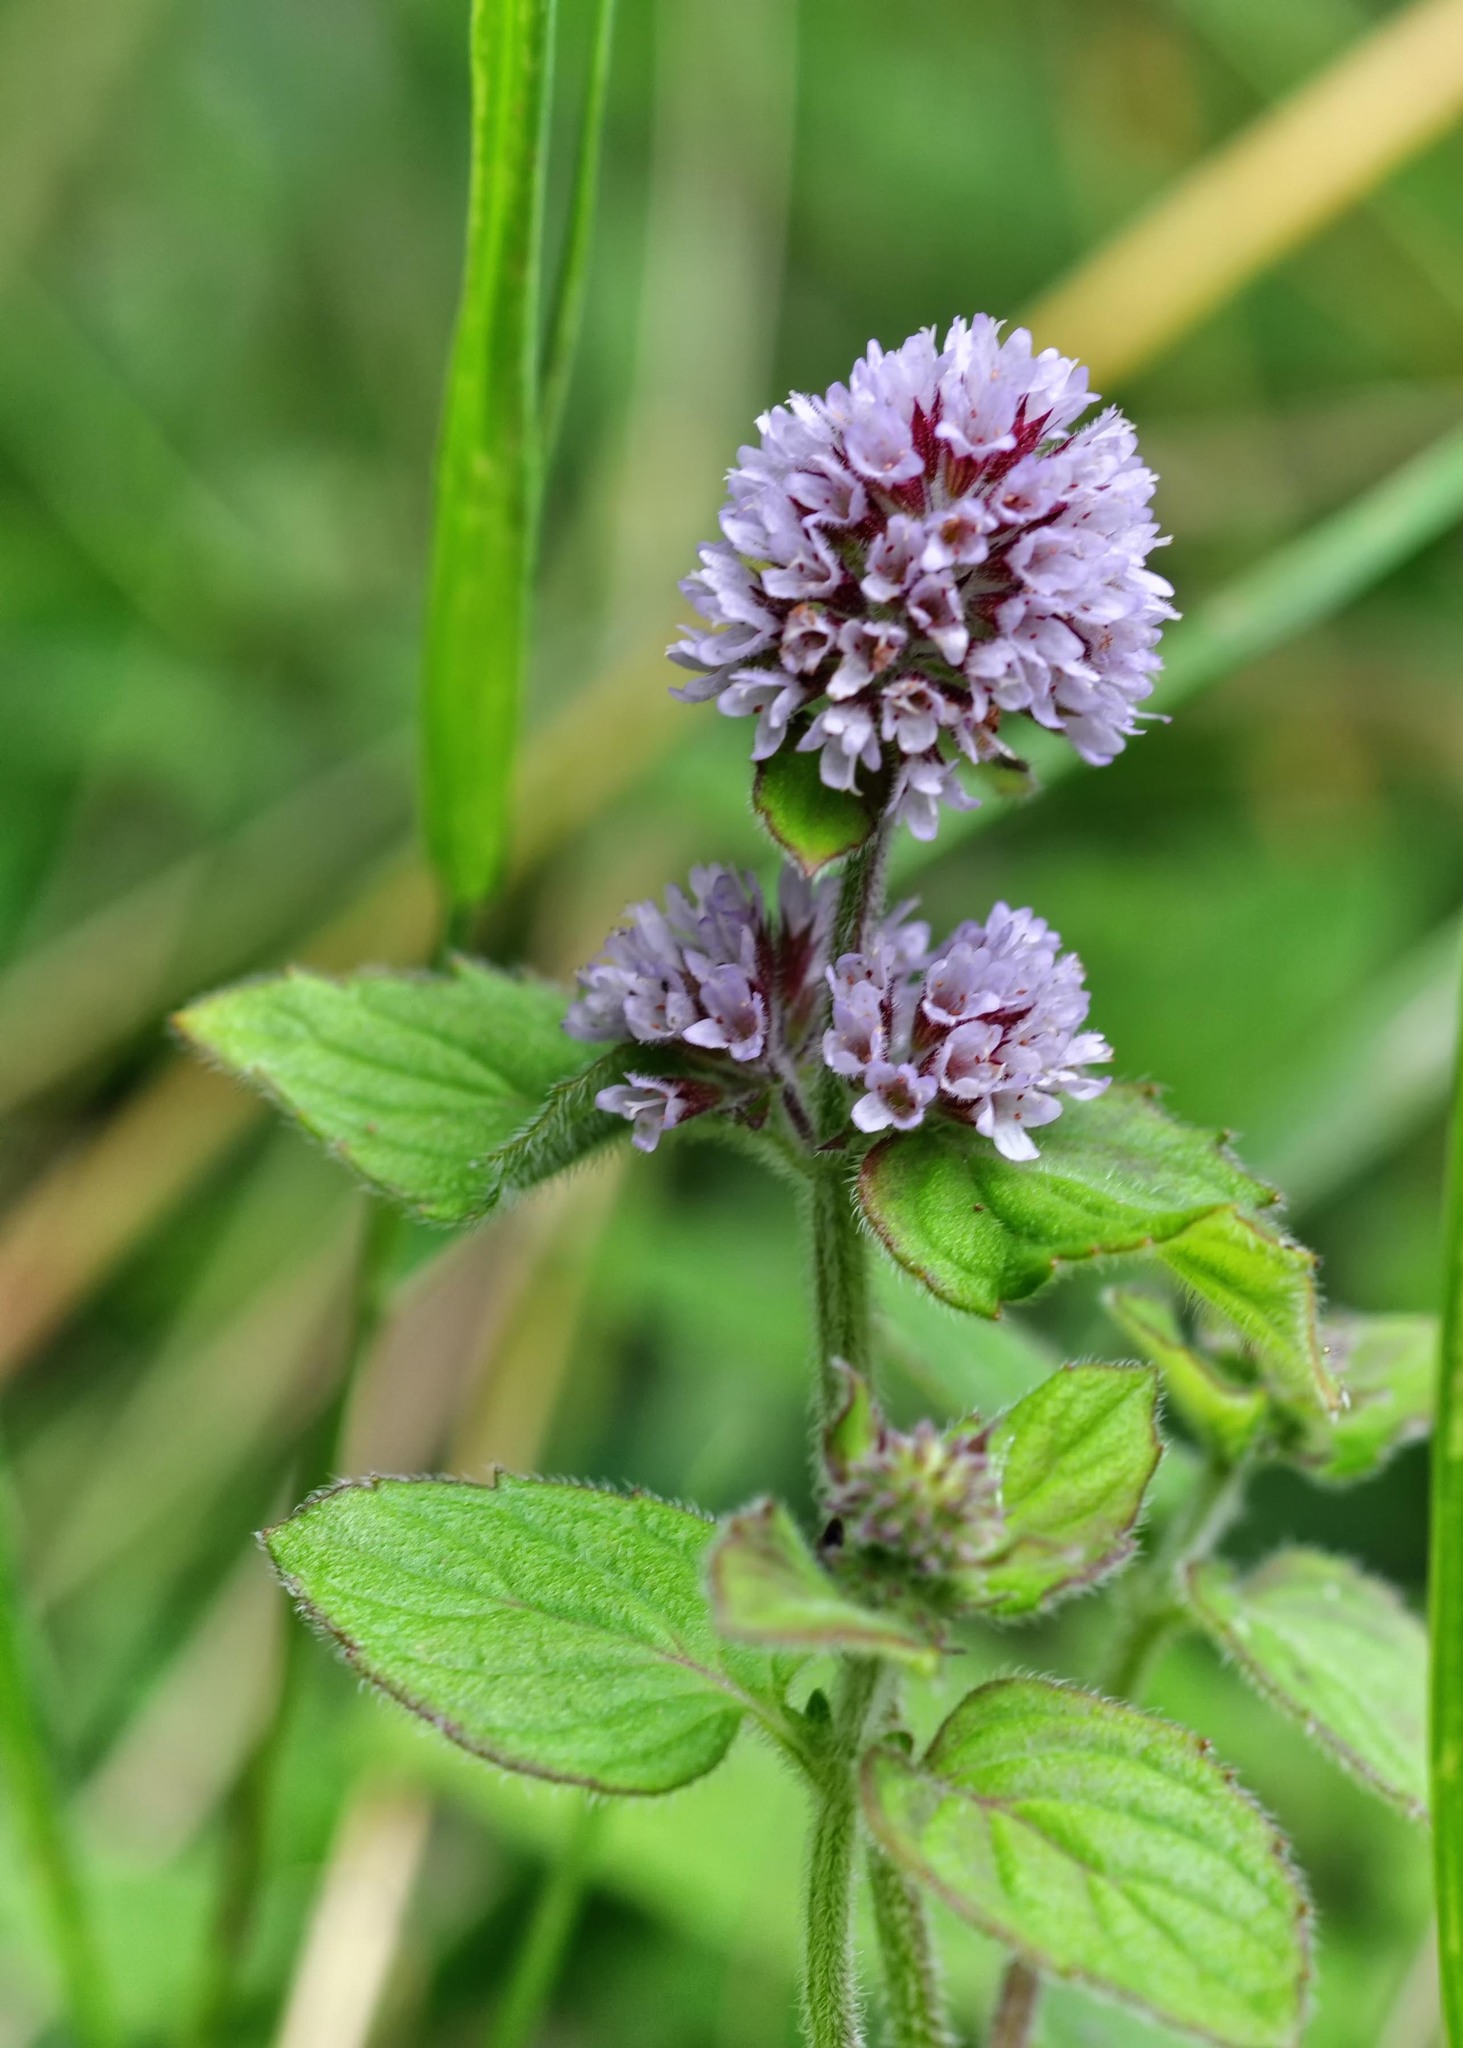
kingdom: Plantae
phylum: Tracheophyta
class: Magnoliopsida
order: Lamiales
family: Lamiaceae
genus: Mentha
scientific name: Mentha aquatica
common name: Water mint
